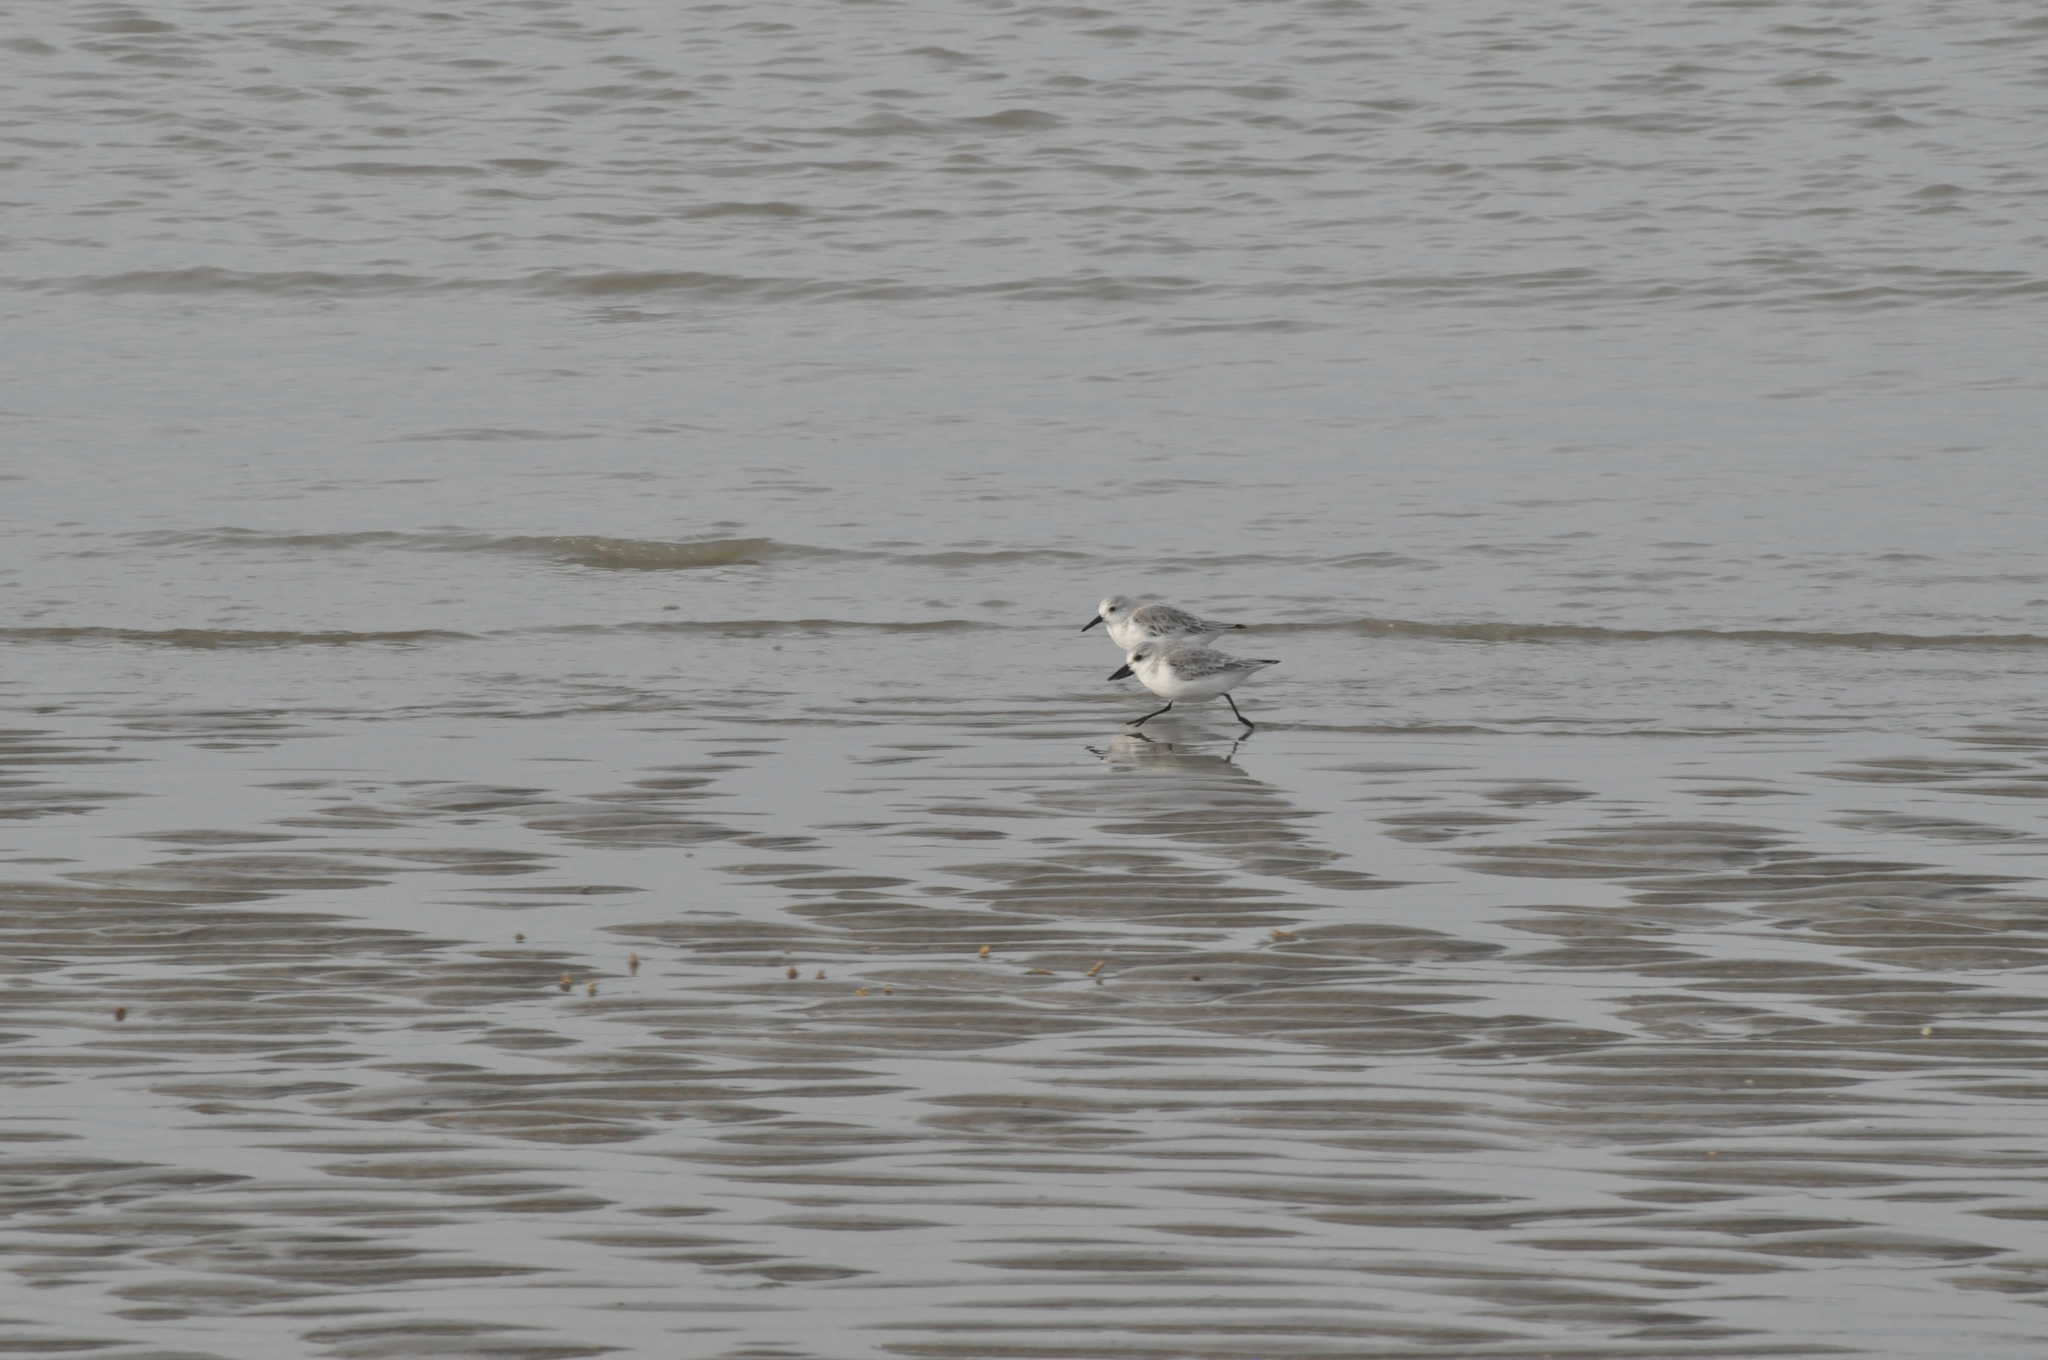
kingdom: Animalia
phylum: Chordata
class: Aves
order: Charadriiformes
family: Scolopacidae
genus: Calidris
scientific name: Calidris alba
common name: Sanderling
